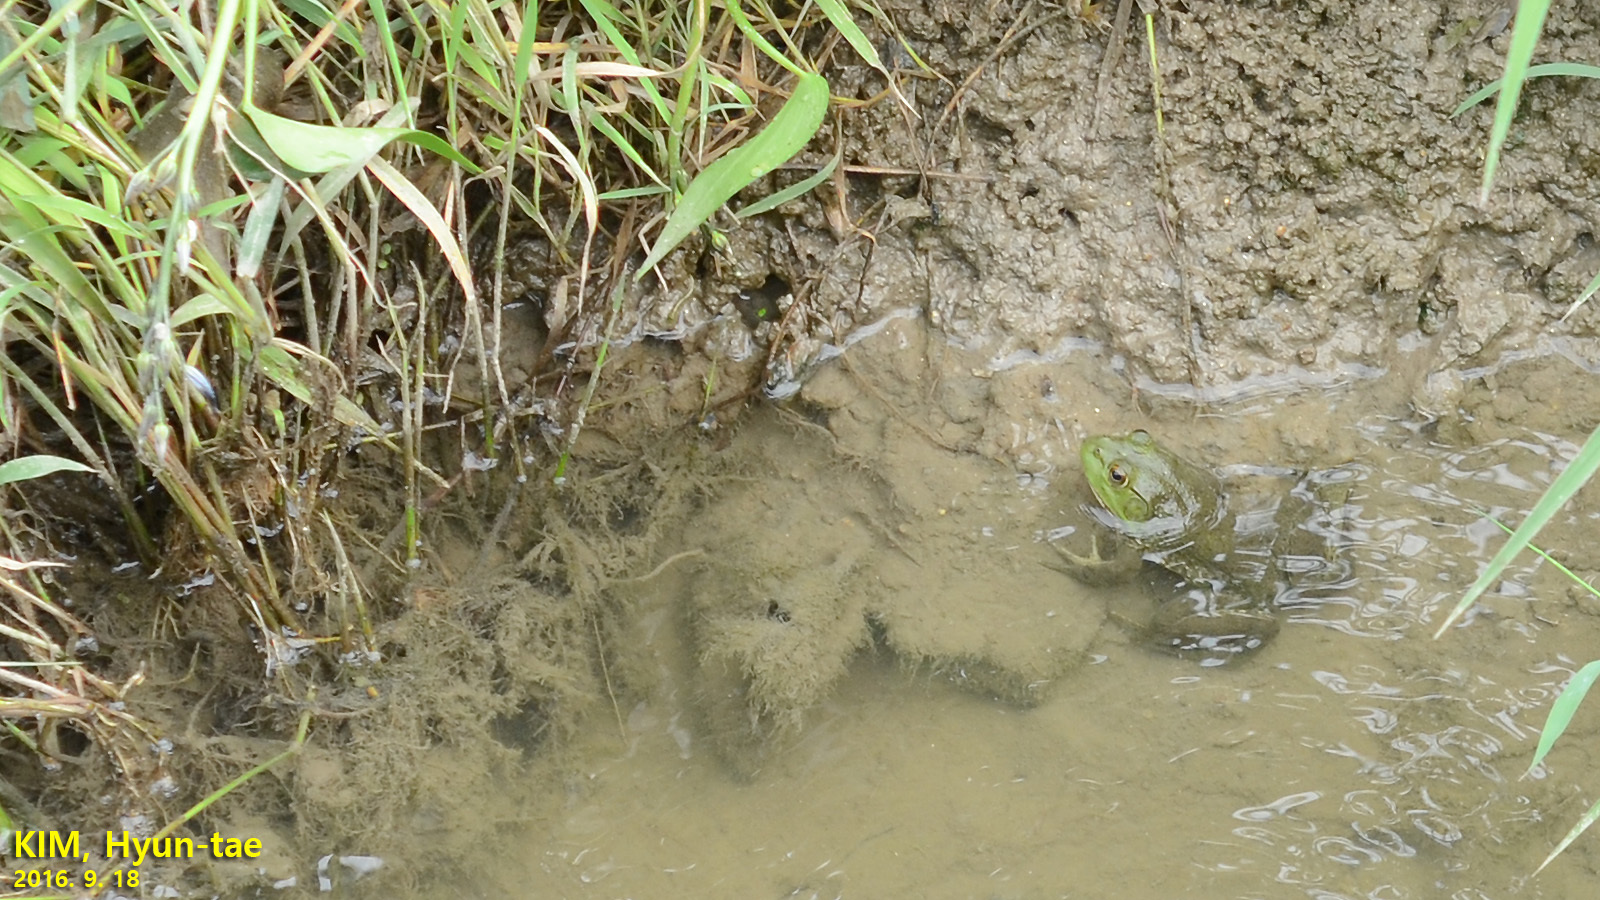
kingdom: Animalia
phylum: Chordata
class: Amphibia
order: Anura
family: Ranidae
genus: Lithobates
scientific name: Lithobates catesbeianus
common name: American bullfrog
